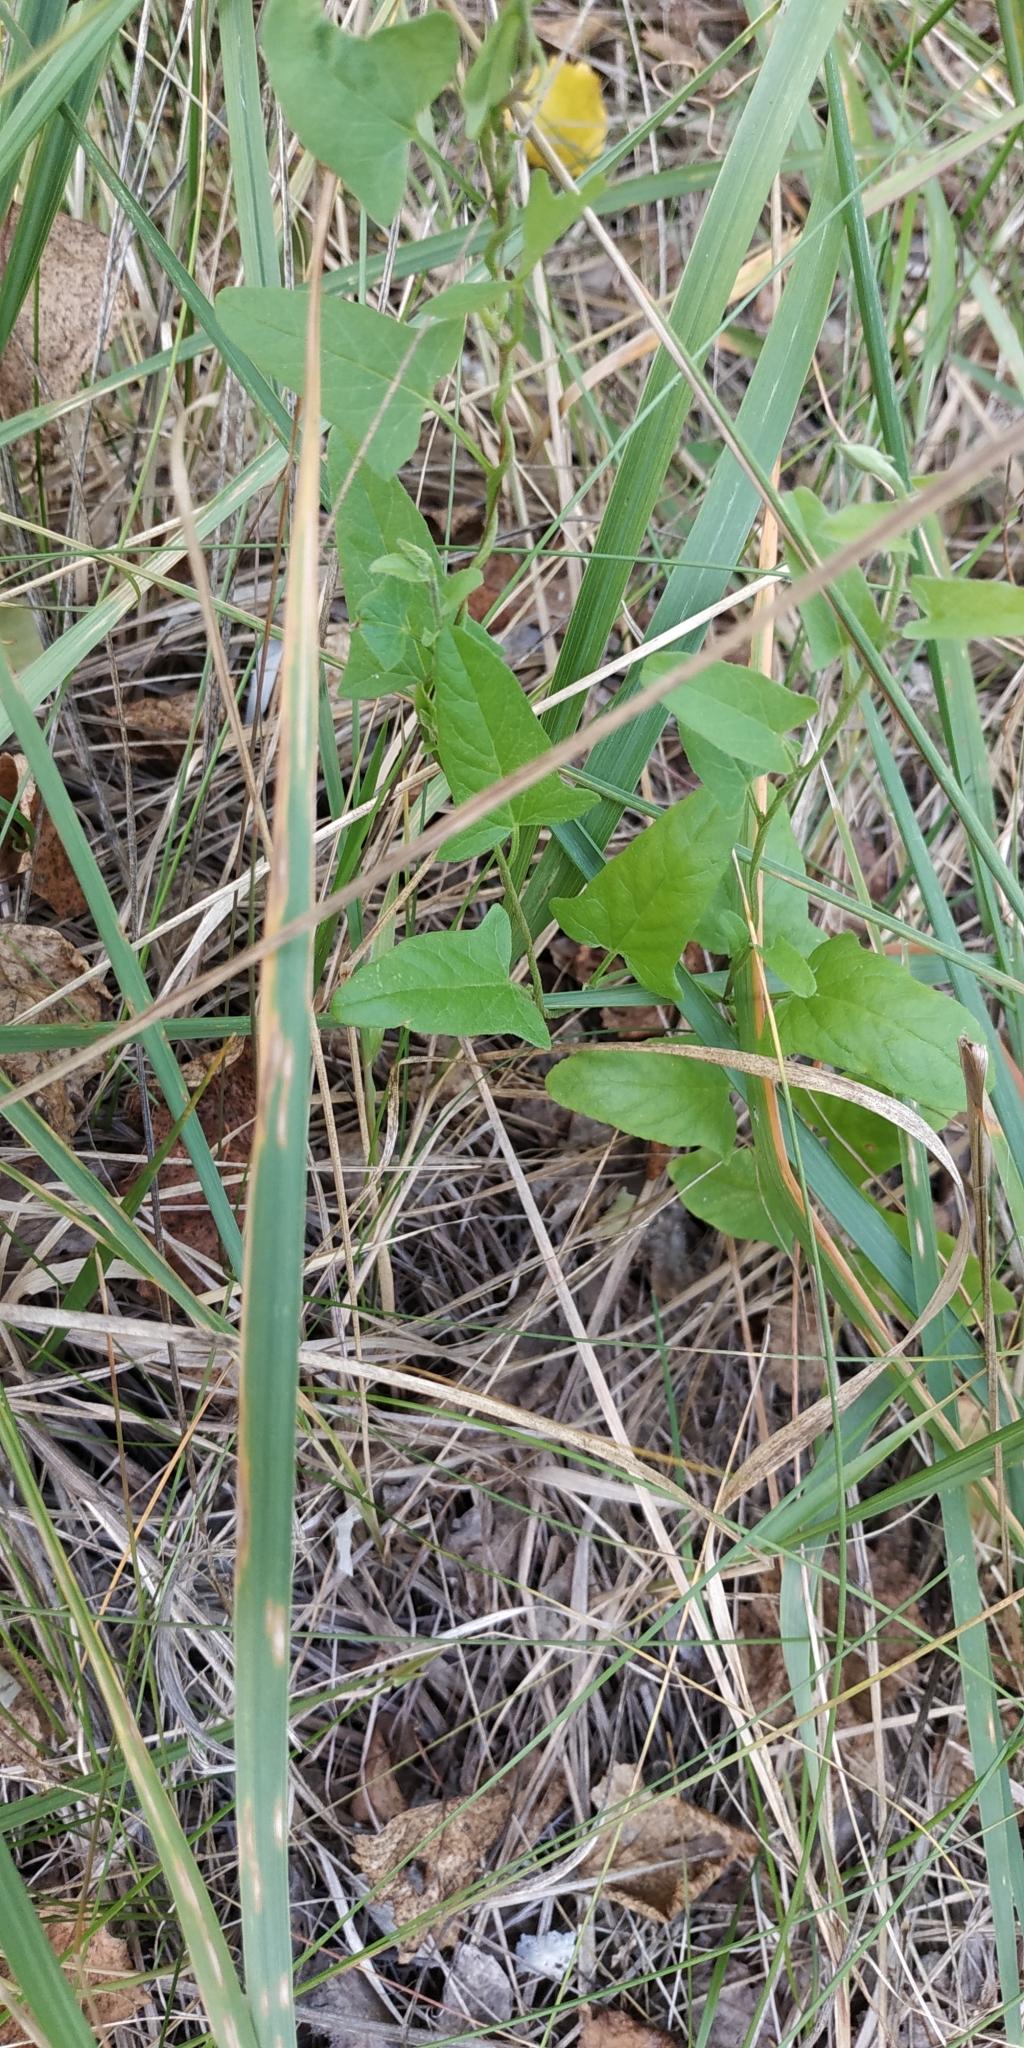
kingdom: Plantae
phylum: Tracheophyta
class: Magnoliopsida
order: Solanales
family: Convolvulaceae
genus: Convolvulus
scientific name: Convolvulus arvensis
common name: Field bindweed
